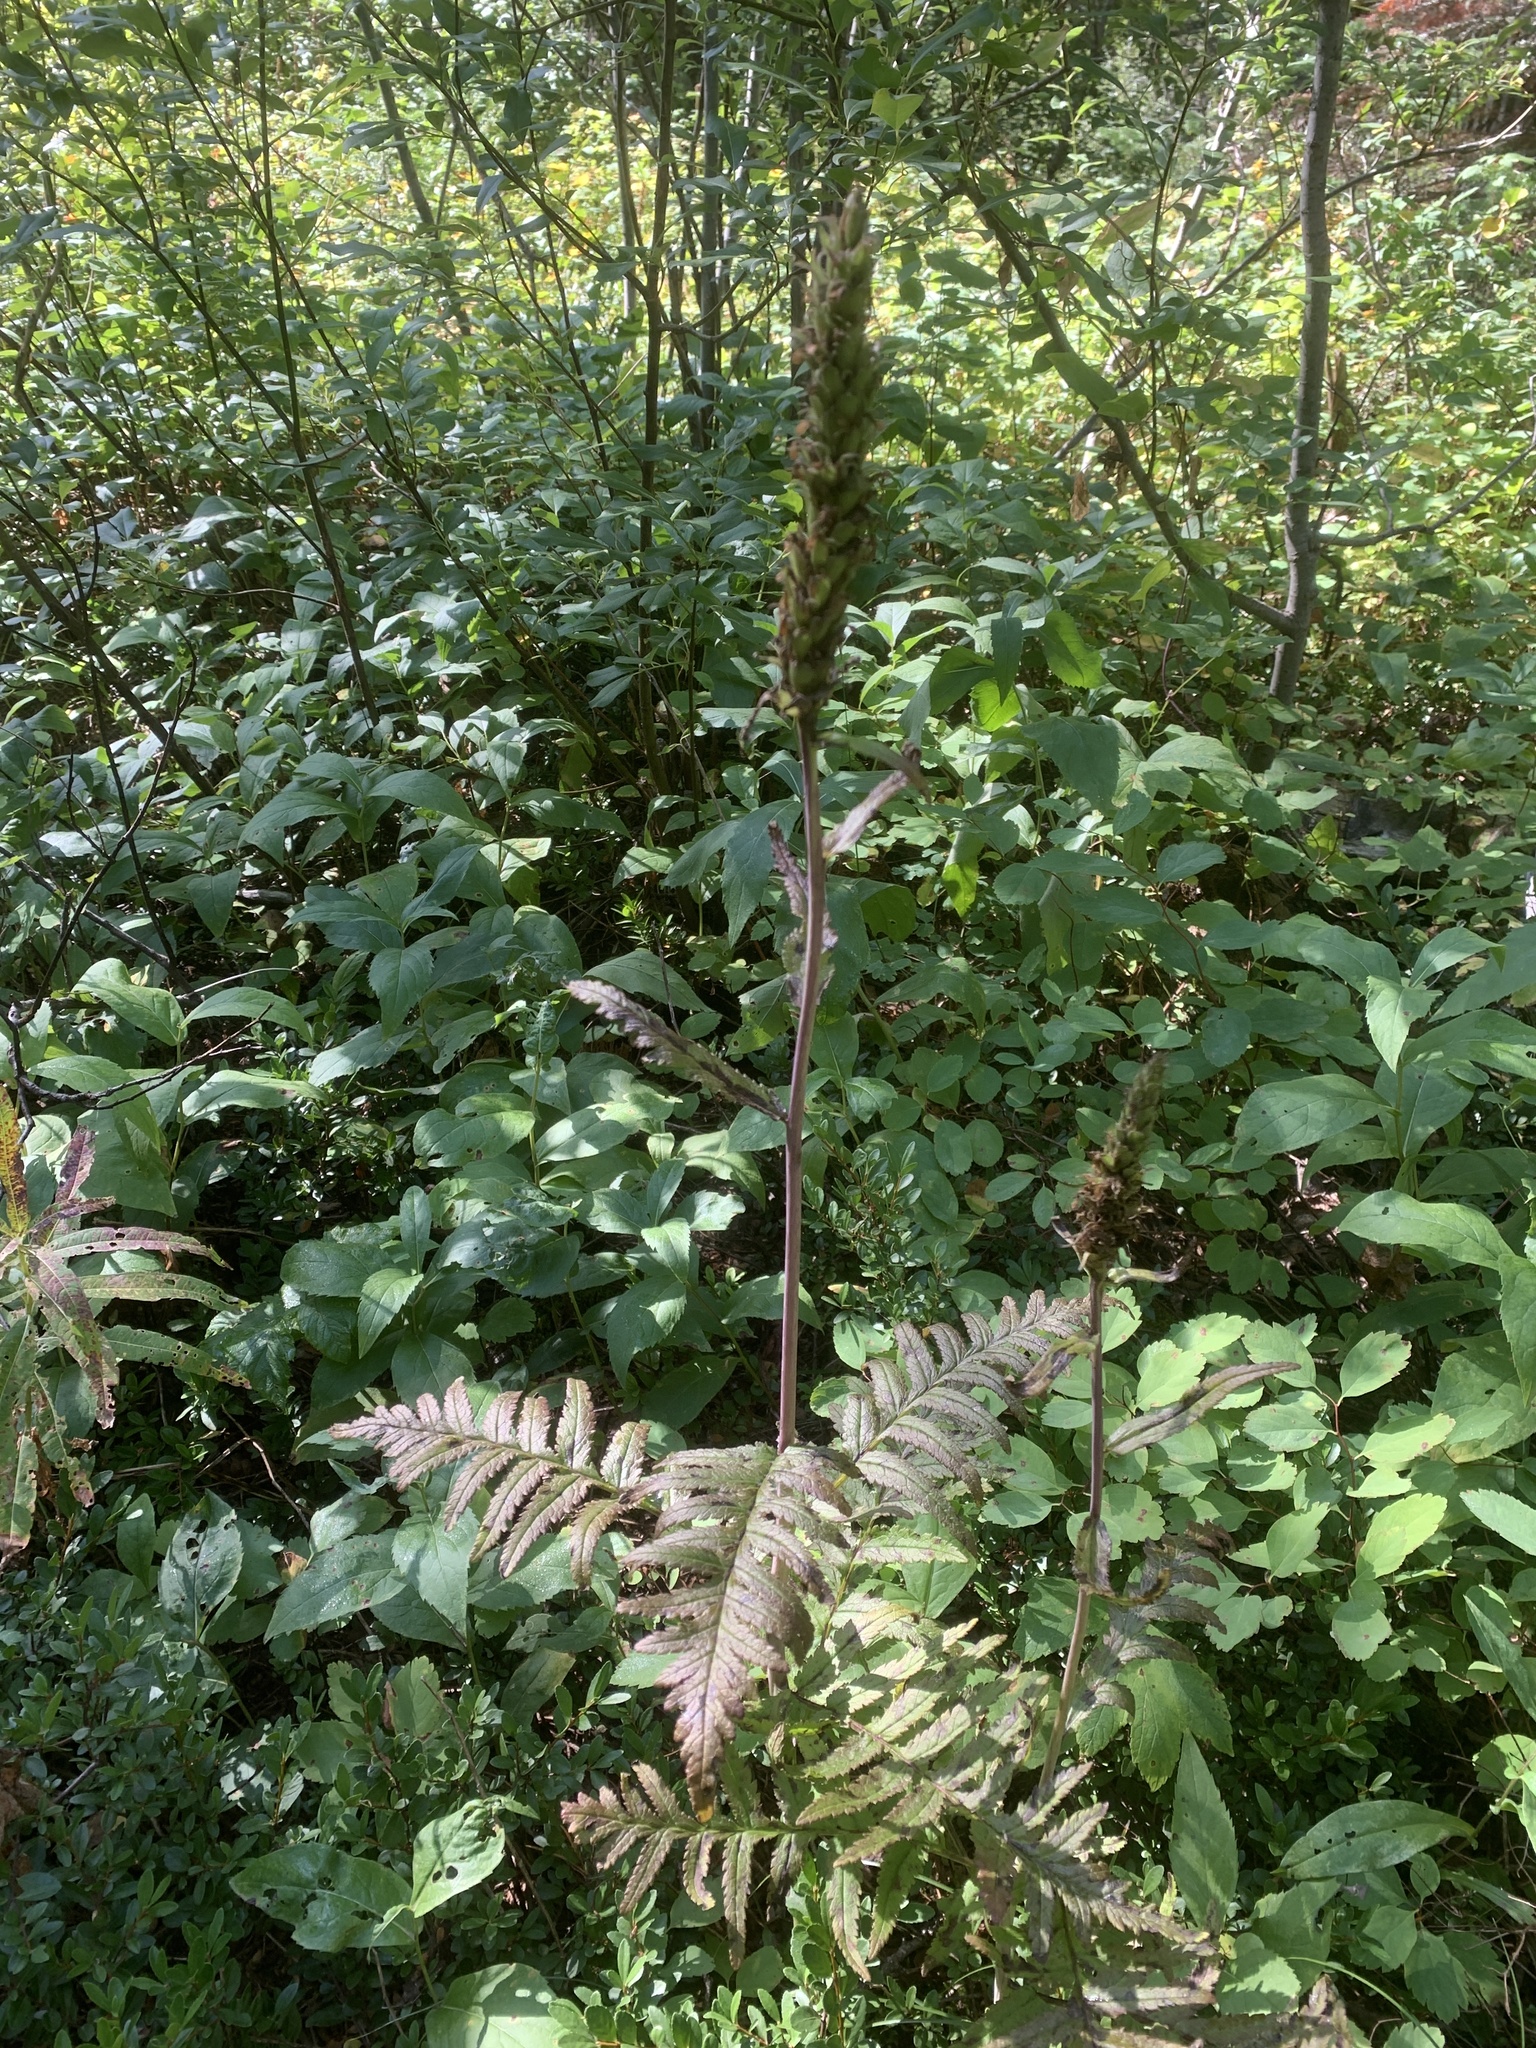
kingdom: Plantae
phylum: Tracheophyta
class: Magnoliopsida
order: Lamiales
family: Orobanchaceae
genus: Pedicularis
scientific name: Pedicularis bracteosa
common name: Bracted lousewort
